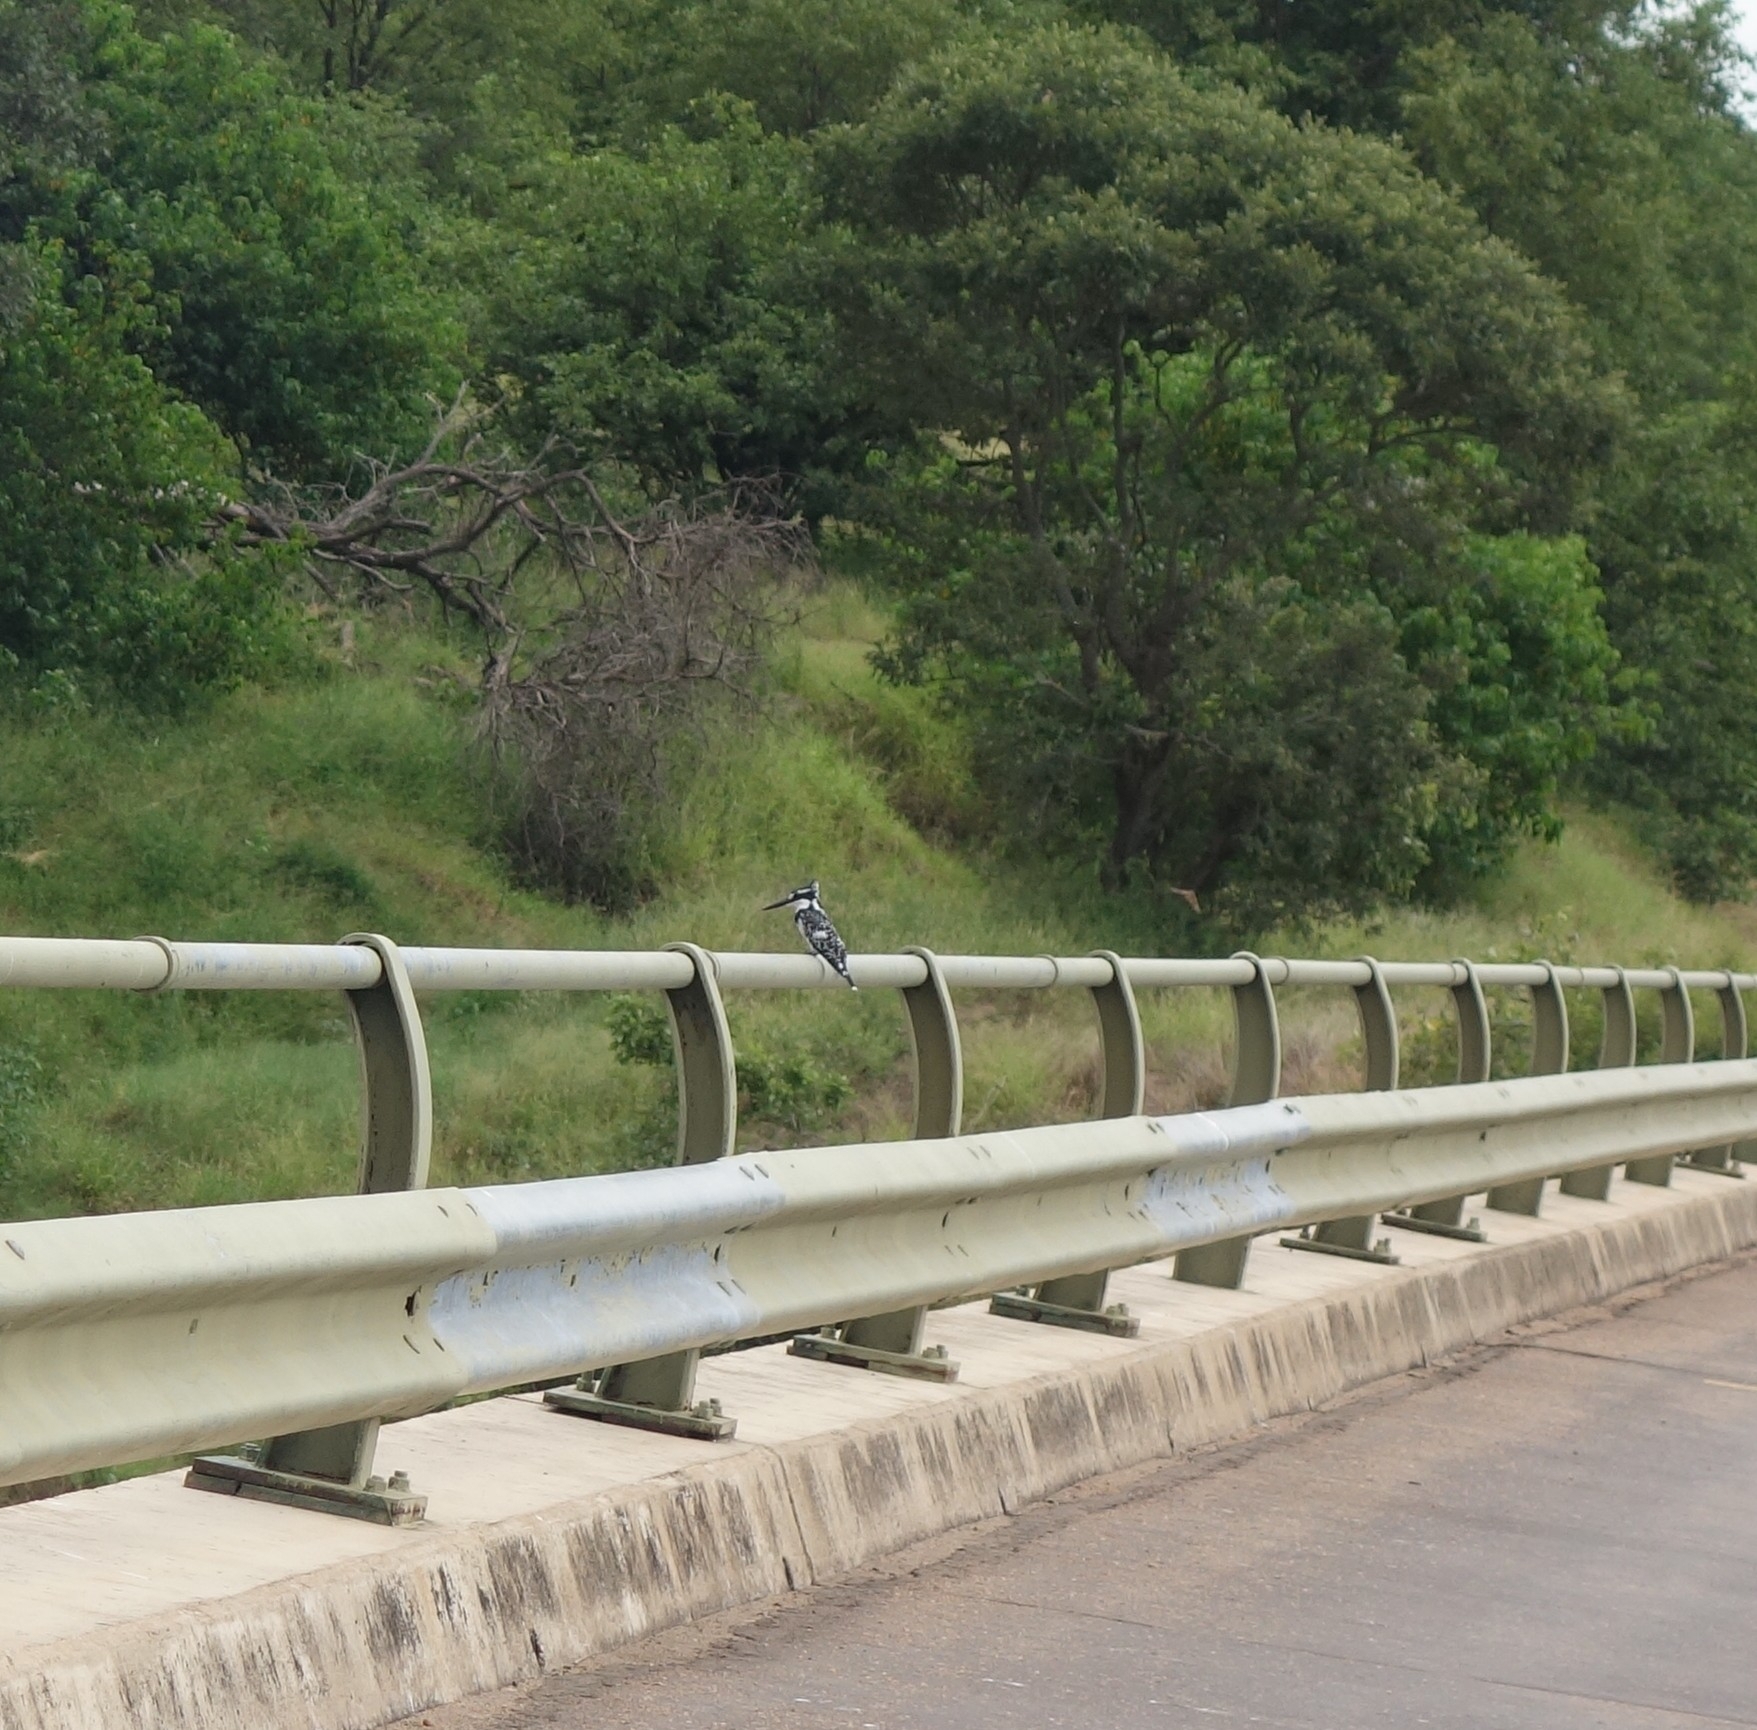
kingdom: Animalia
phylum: Chordata
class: Aves
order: Coraciiformes
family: Alcedinidae
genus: Ceryle
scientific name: Ceryle rudis
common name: Pied kingfisher
